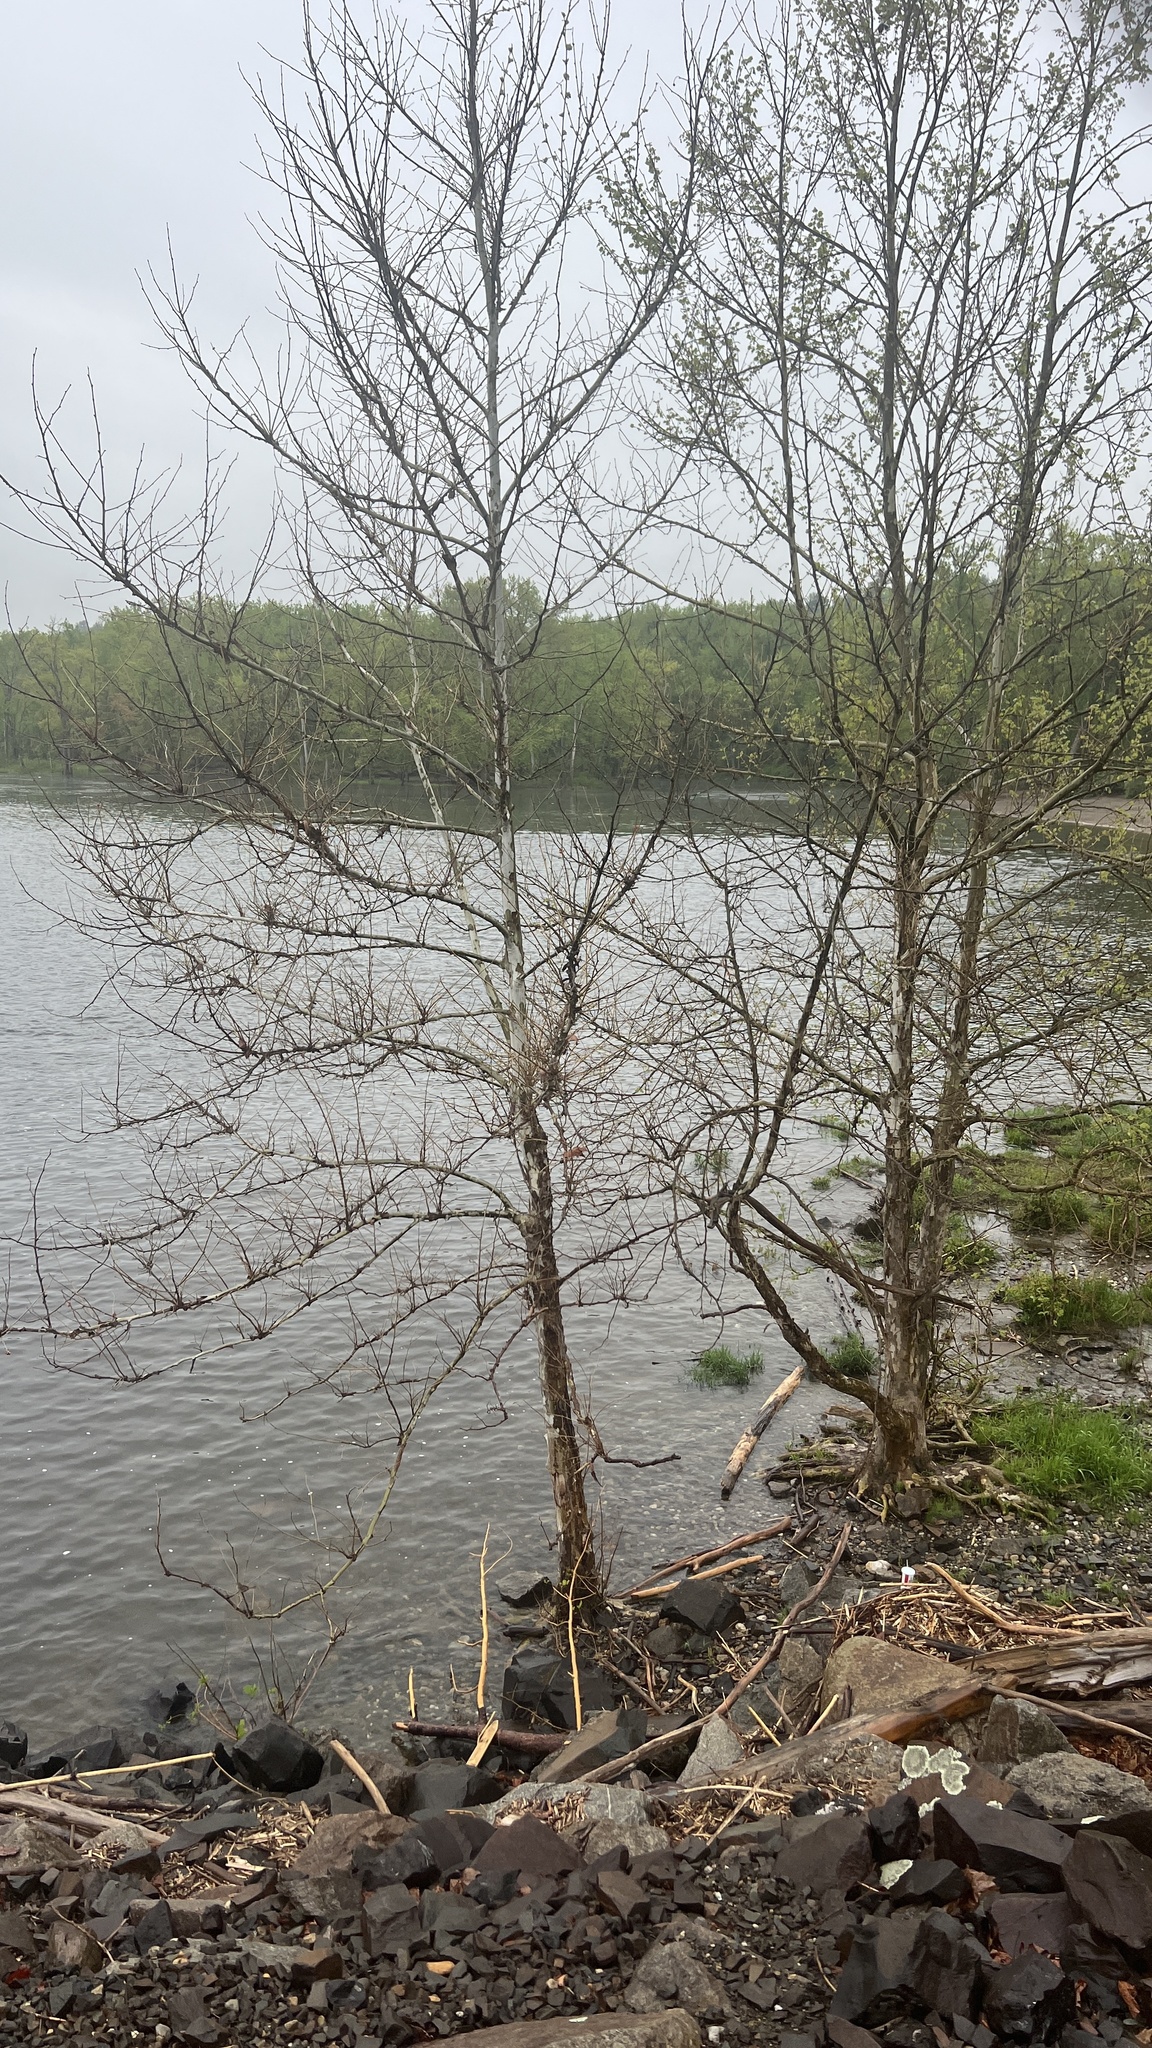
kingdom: Plantae
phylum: Tracheophyta
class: Magnoliopsida
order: Proteales
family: Platanaceae
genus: Platanus
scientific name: Platanus occidentalis
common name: American sycamore
